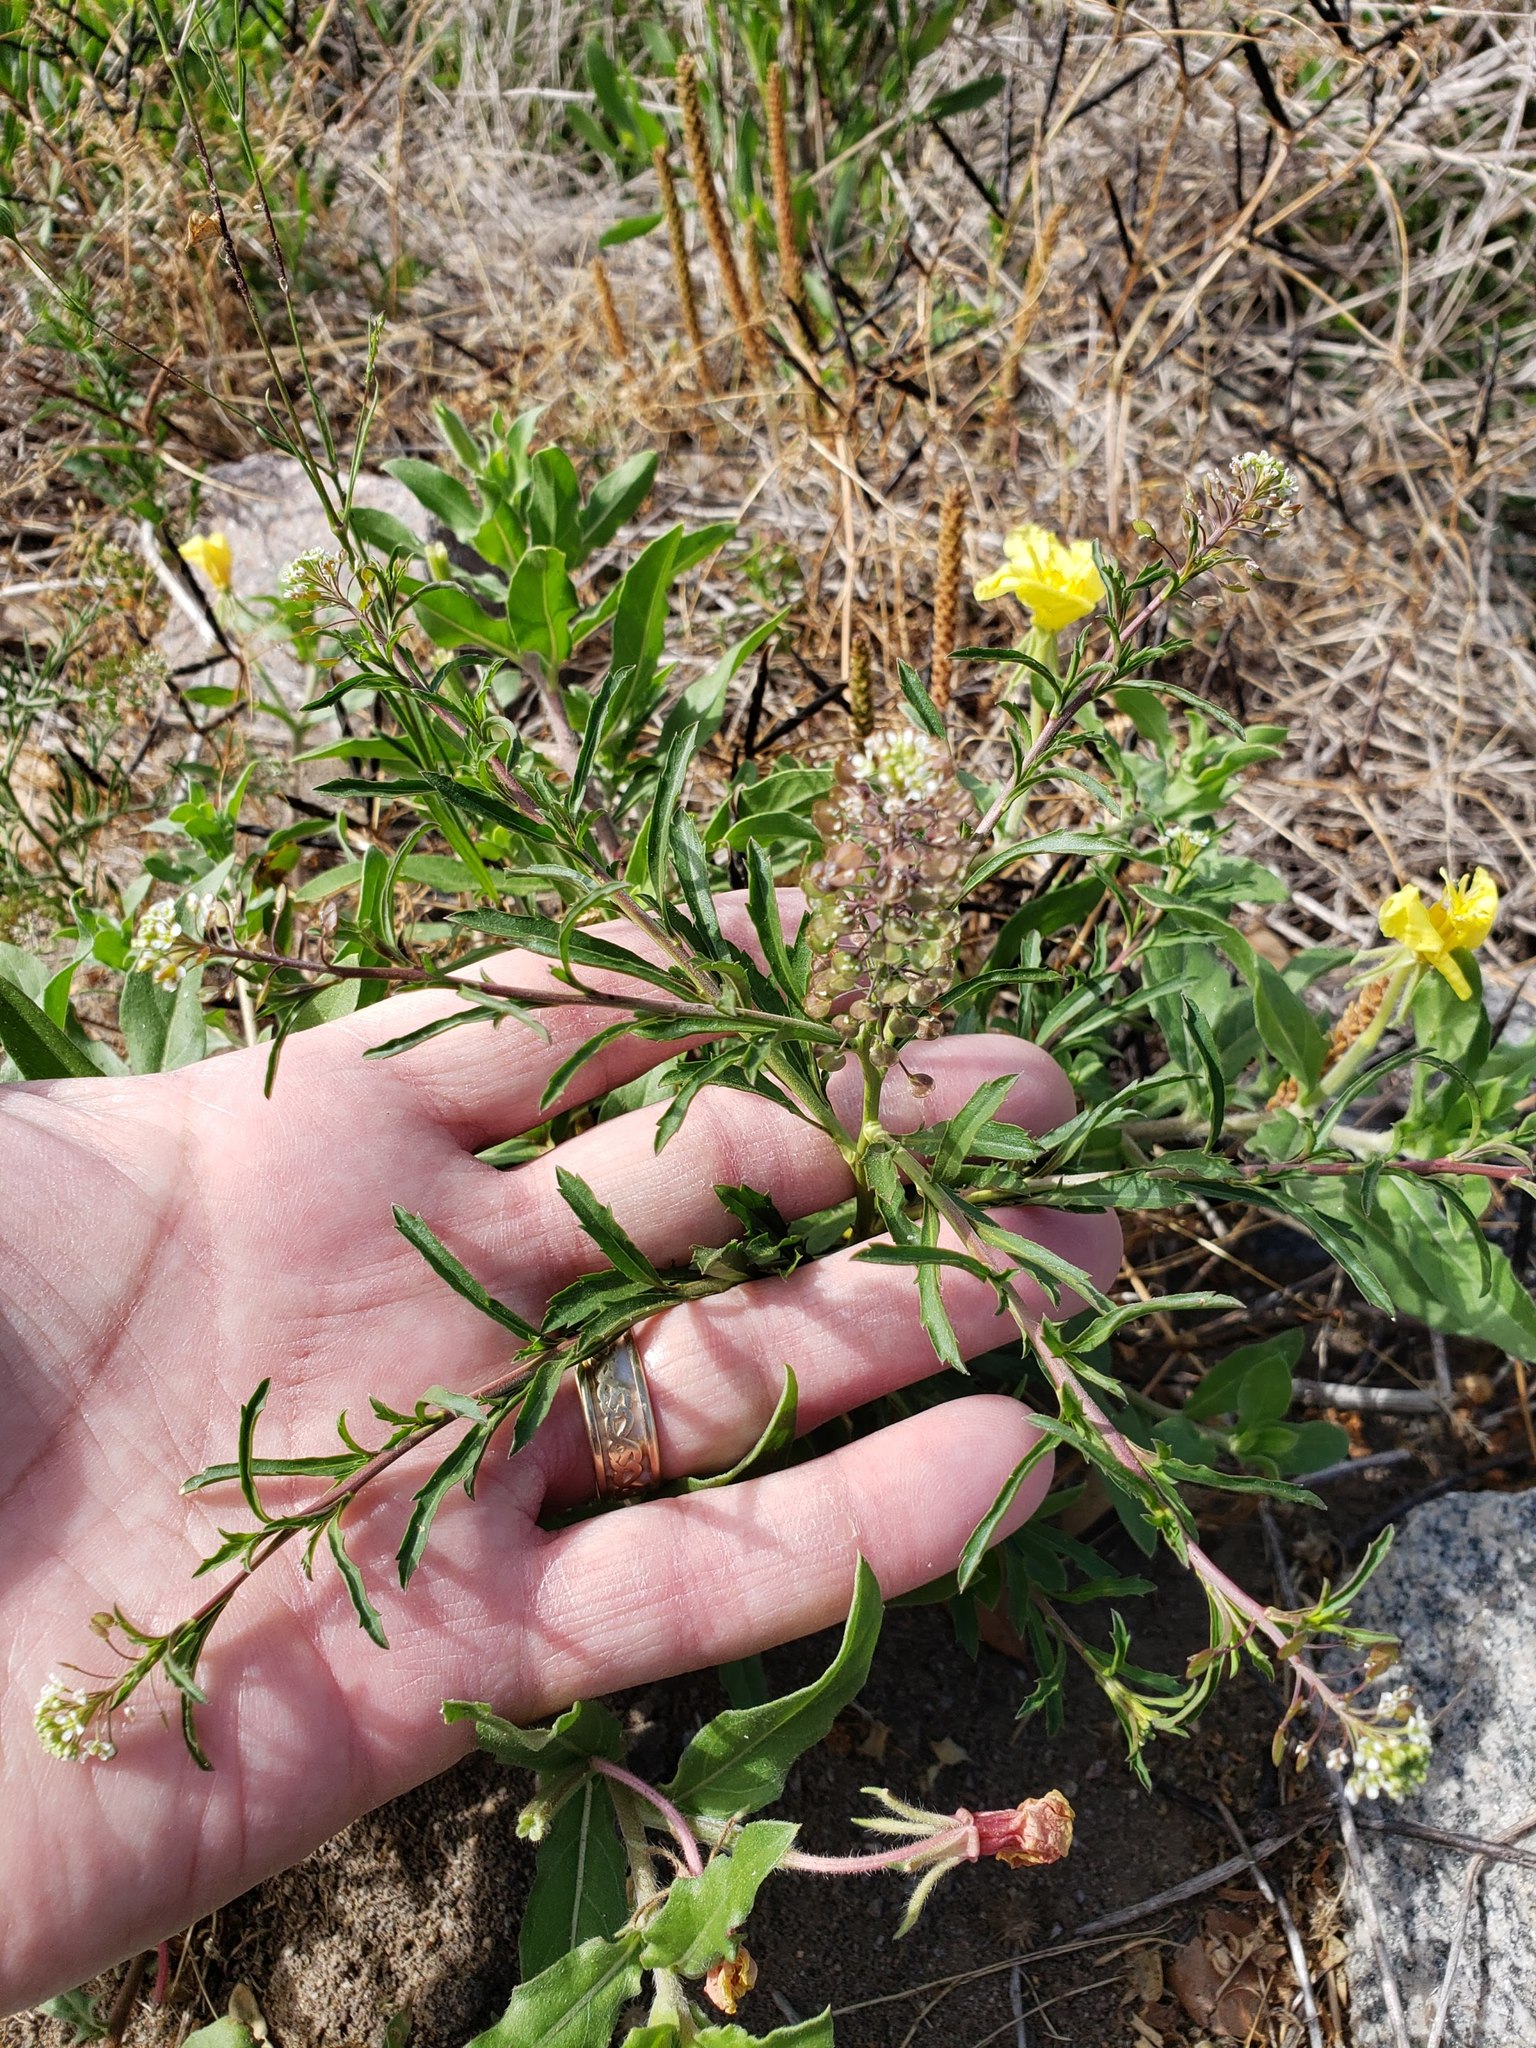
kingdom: Plantae
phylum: Tracheophyta
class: Magnoliopsida
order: Brassicales
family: Brassicaceae
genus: Lepidium
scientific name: Lepidium virginicum
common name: Least pepperwort
